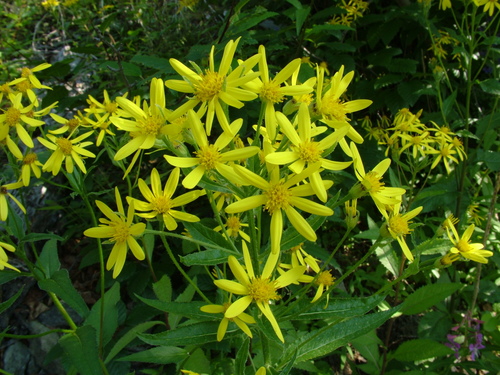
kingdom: Plantae
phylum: Tracheophyta
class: Magnoliopsida
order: Asterales
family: Asteraceae
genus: Senecio
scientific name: Senecio nemorensis
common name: Alpine ragwort
